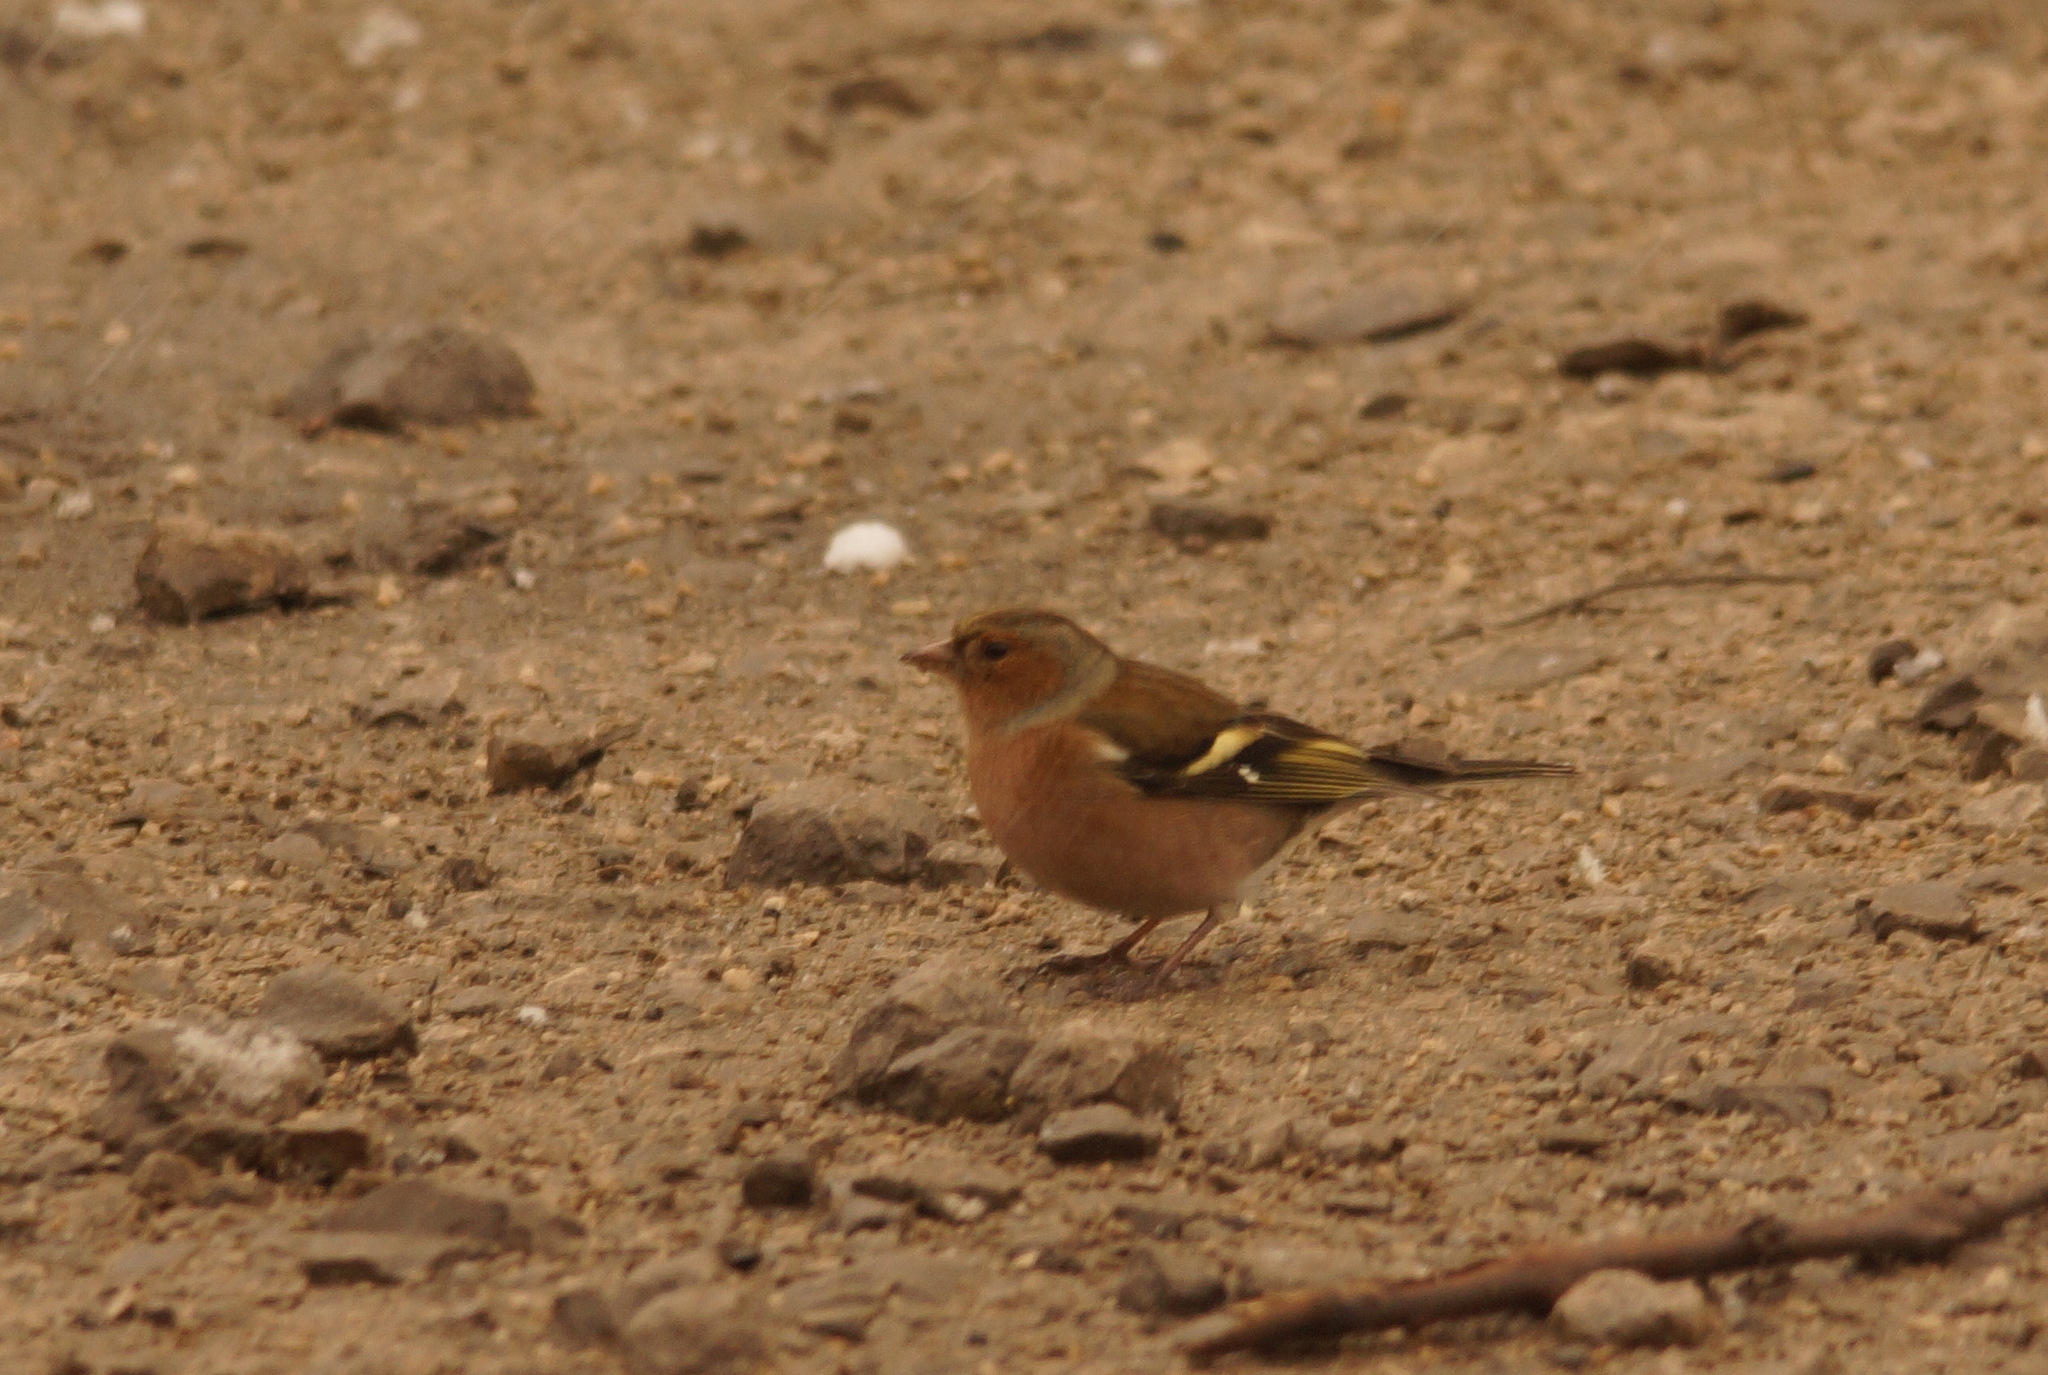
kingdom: Animalia
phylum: Chordata
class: Aves
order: Passeriformes
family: Fringillidae
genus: Fringilla
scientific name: Fringilla coelebs
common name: Common chaffinch
